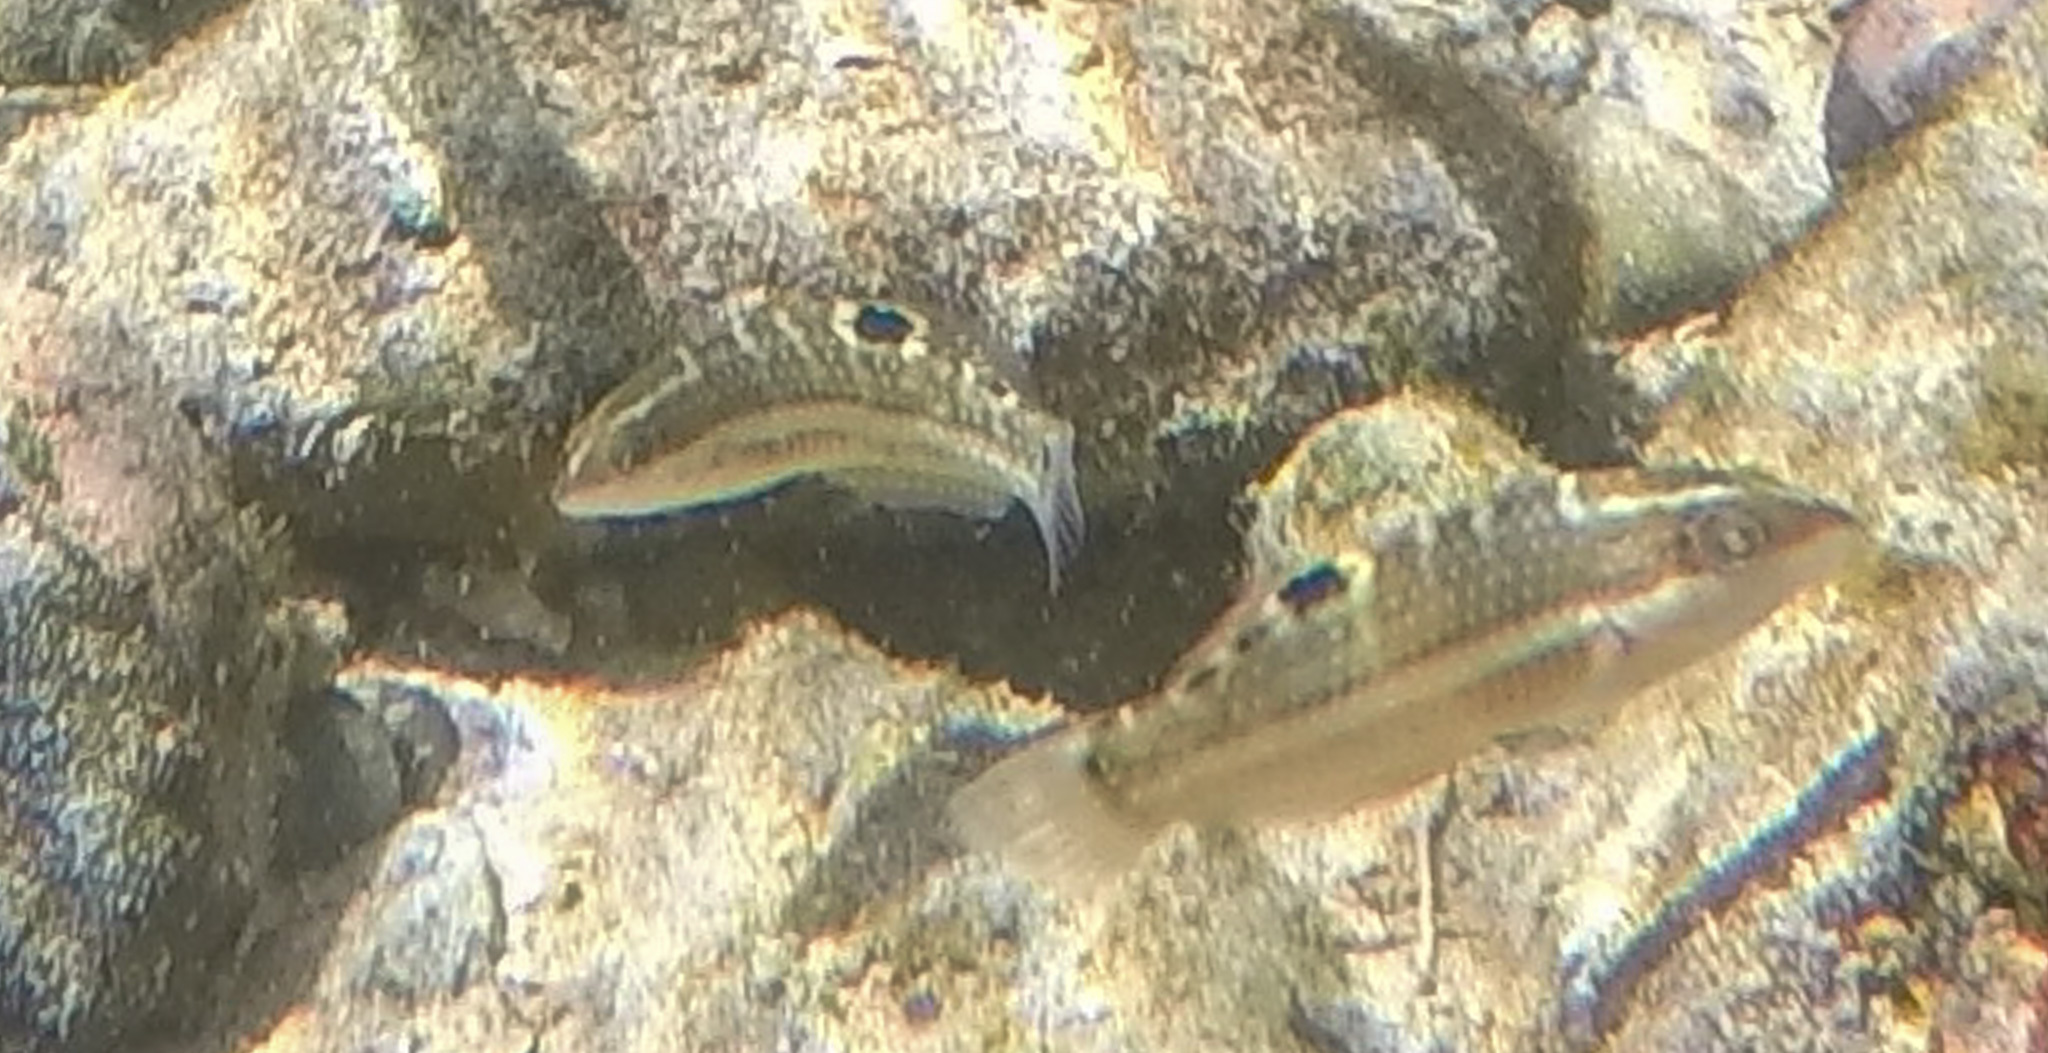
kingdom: Animalia
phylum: Chordata
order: Perciformes
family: Labridae
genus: Halichoeres
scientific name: Halichoeres notospilus
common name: Banded wrasse
